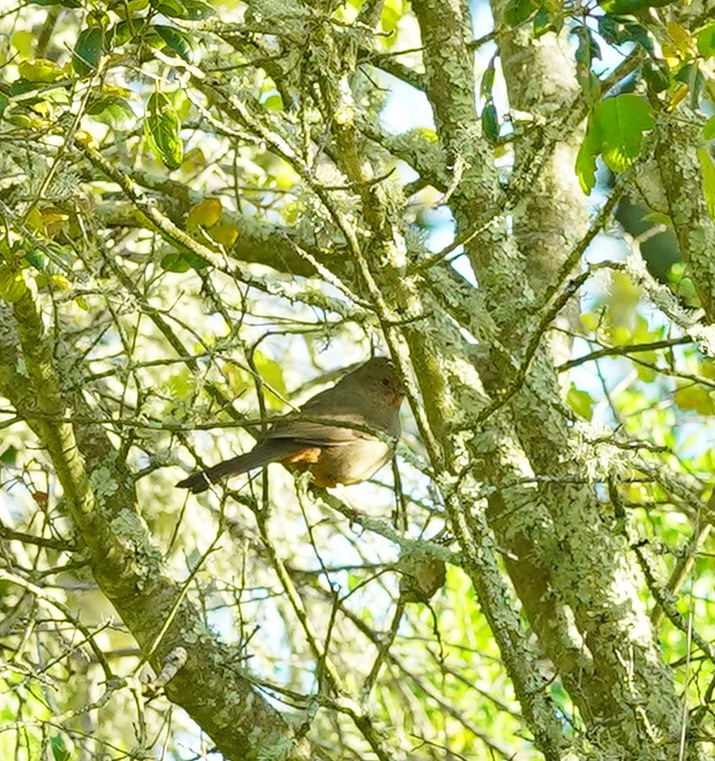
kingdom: Animalia
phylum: Chordata
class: Aves
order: Passeriformes
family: Passerellidae
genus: Melozone
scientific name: Melozone crissalis
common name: California towhee
